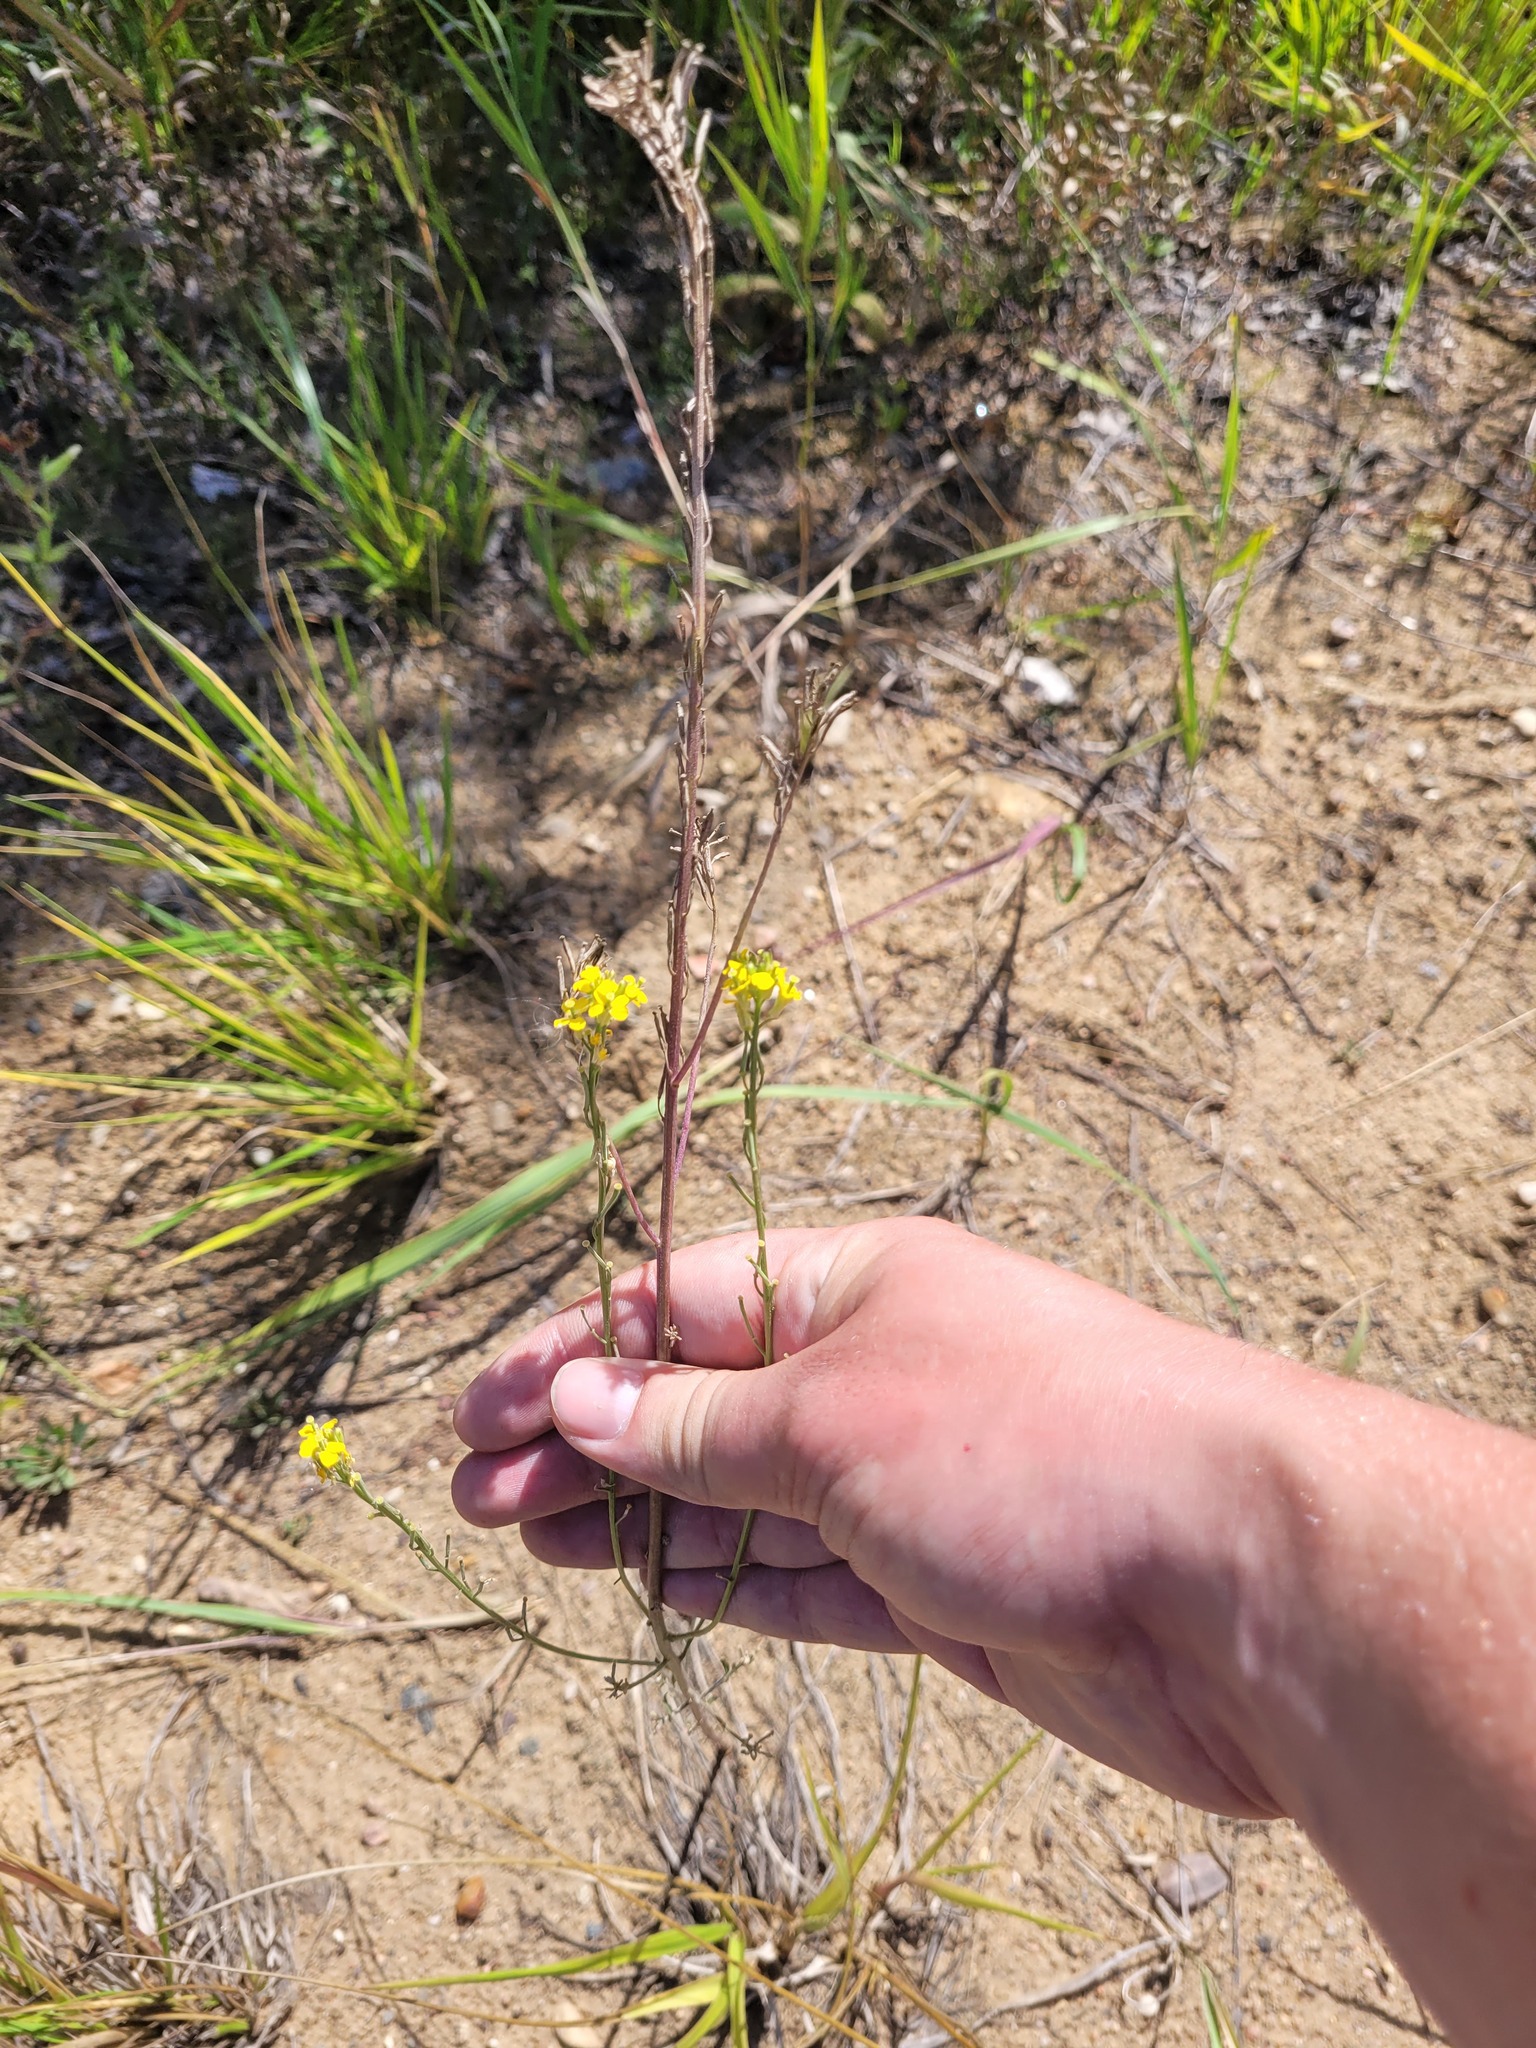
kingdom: Plantae
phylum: Tracheophyta
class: Magnoliopsida
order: Brassicales
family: Brassicaceae
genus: Erysimum
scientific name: Erysimum hieraciifolium
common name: European wallflower
